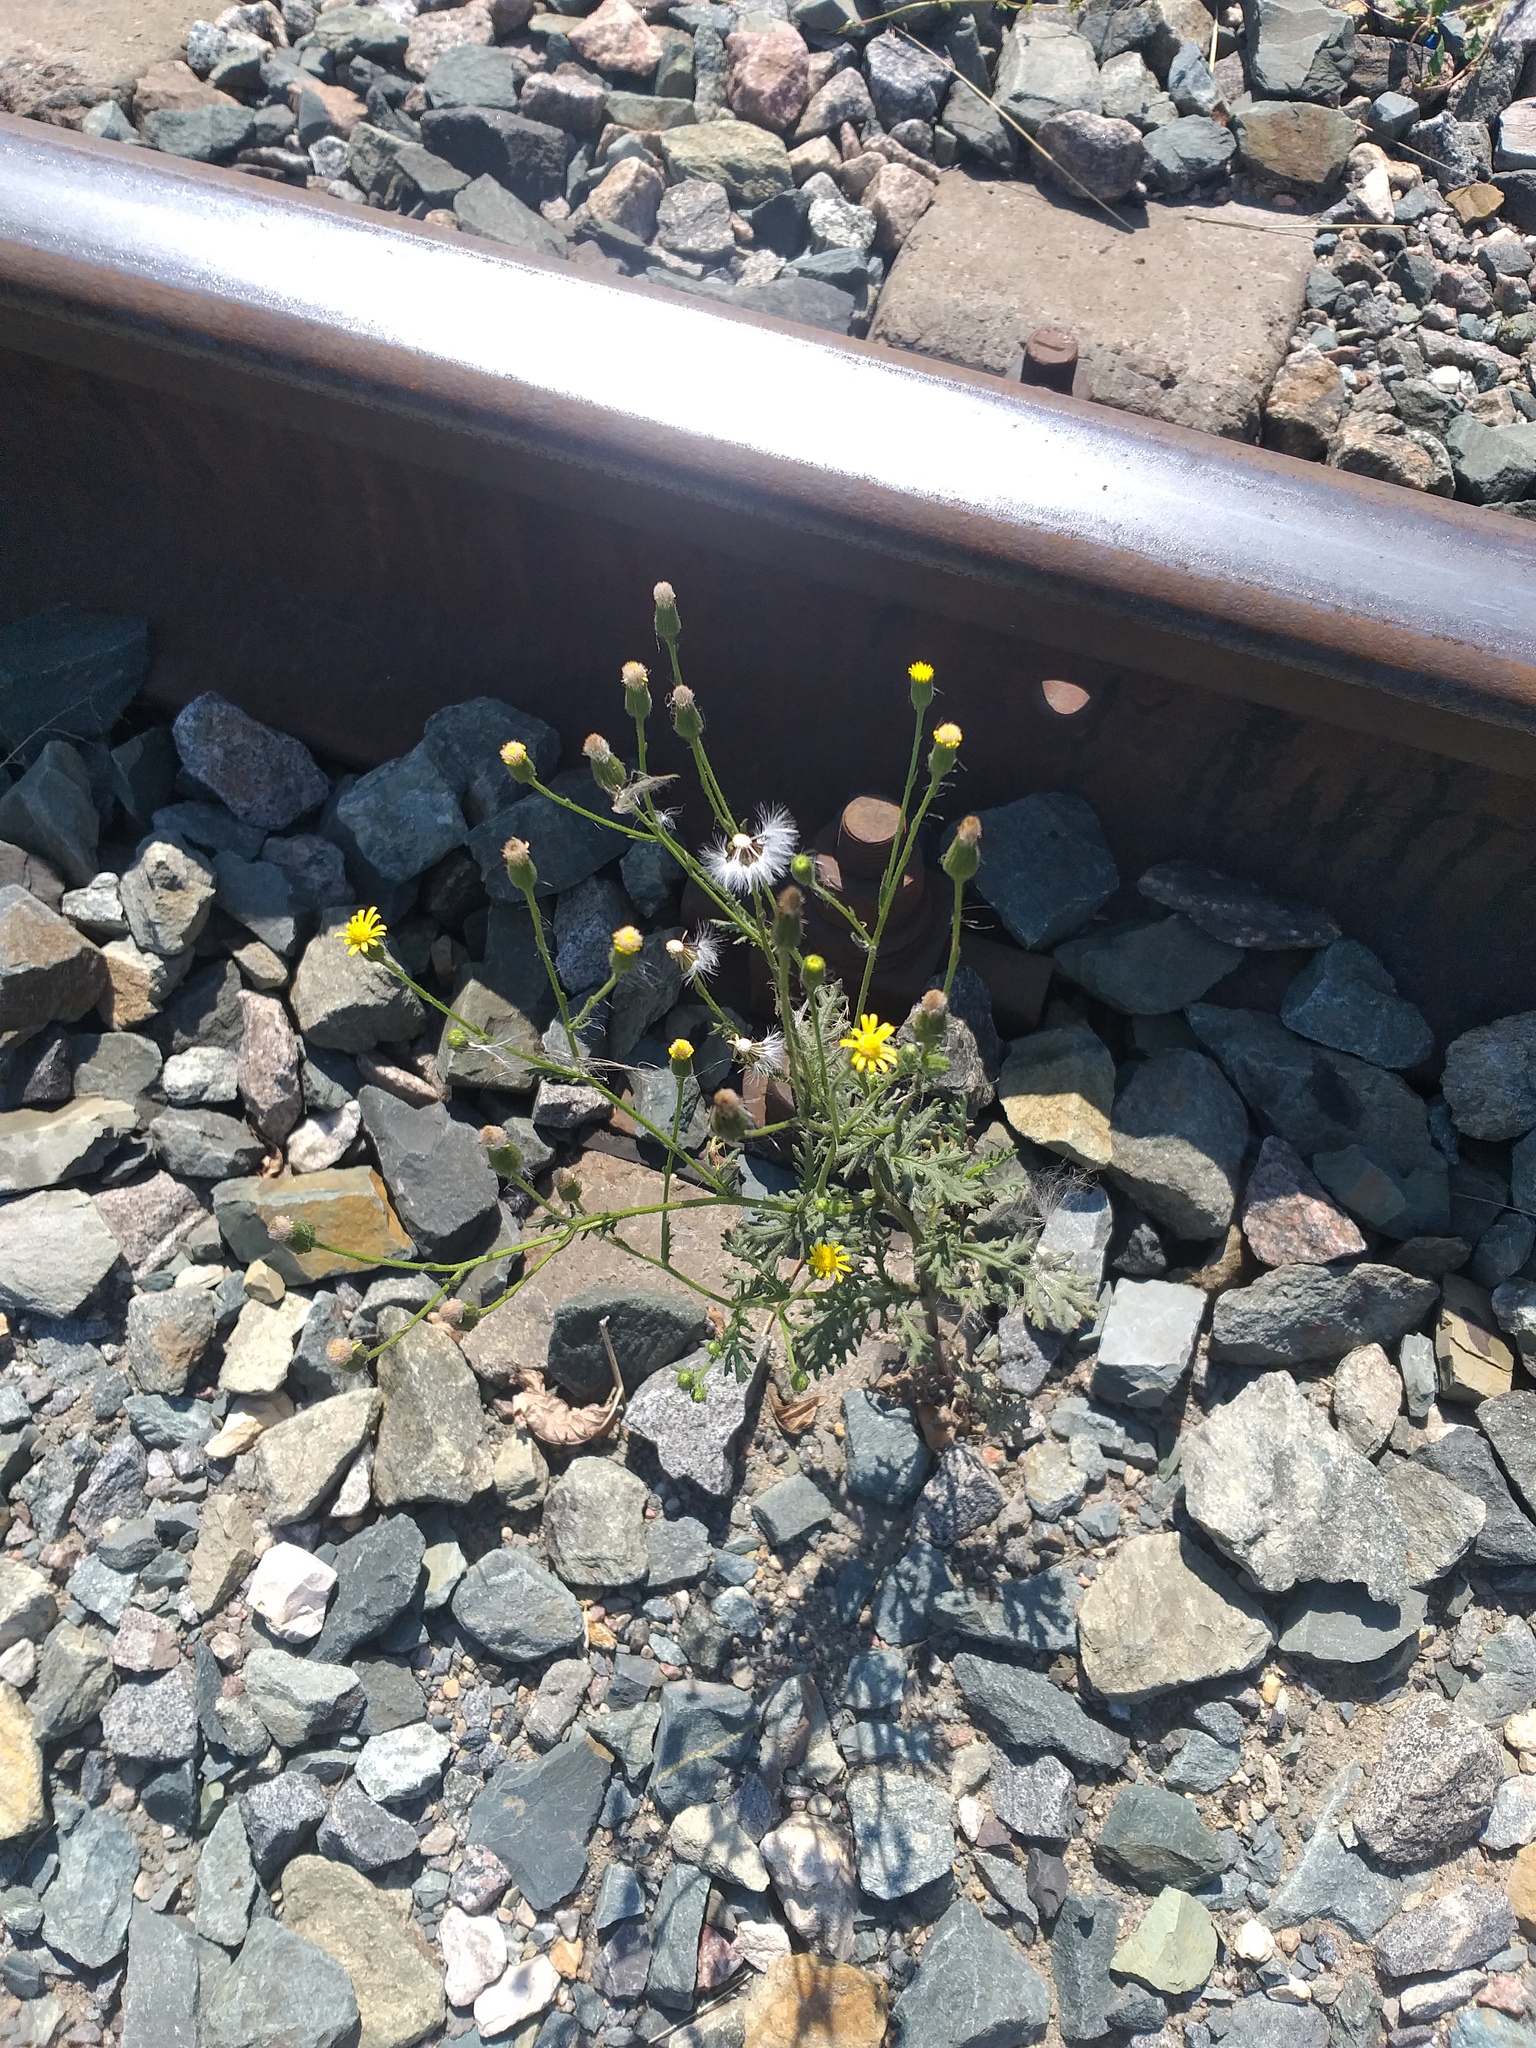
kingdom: Plantae
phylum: Tracheophyta
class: Magnoliopsida
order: Asterales
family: Asteraceae
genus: Senecio
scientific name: Senecio viscosus
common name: Sticky groundsel
